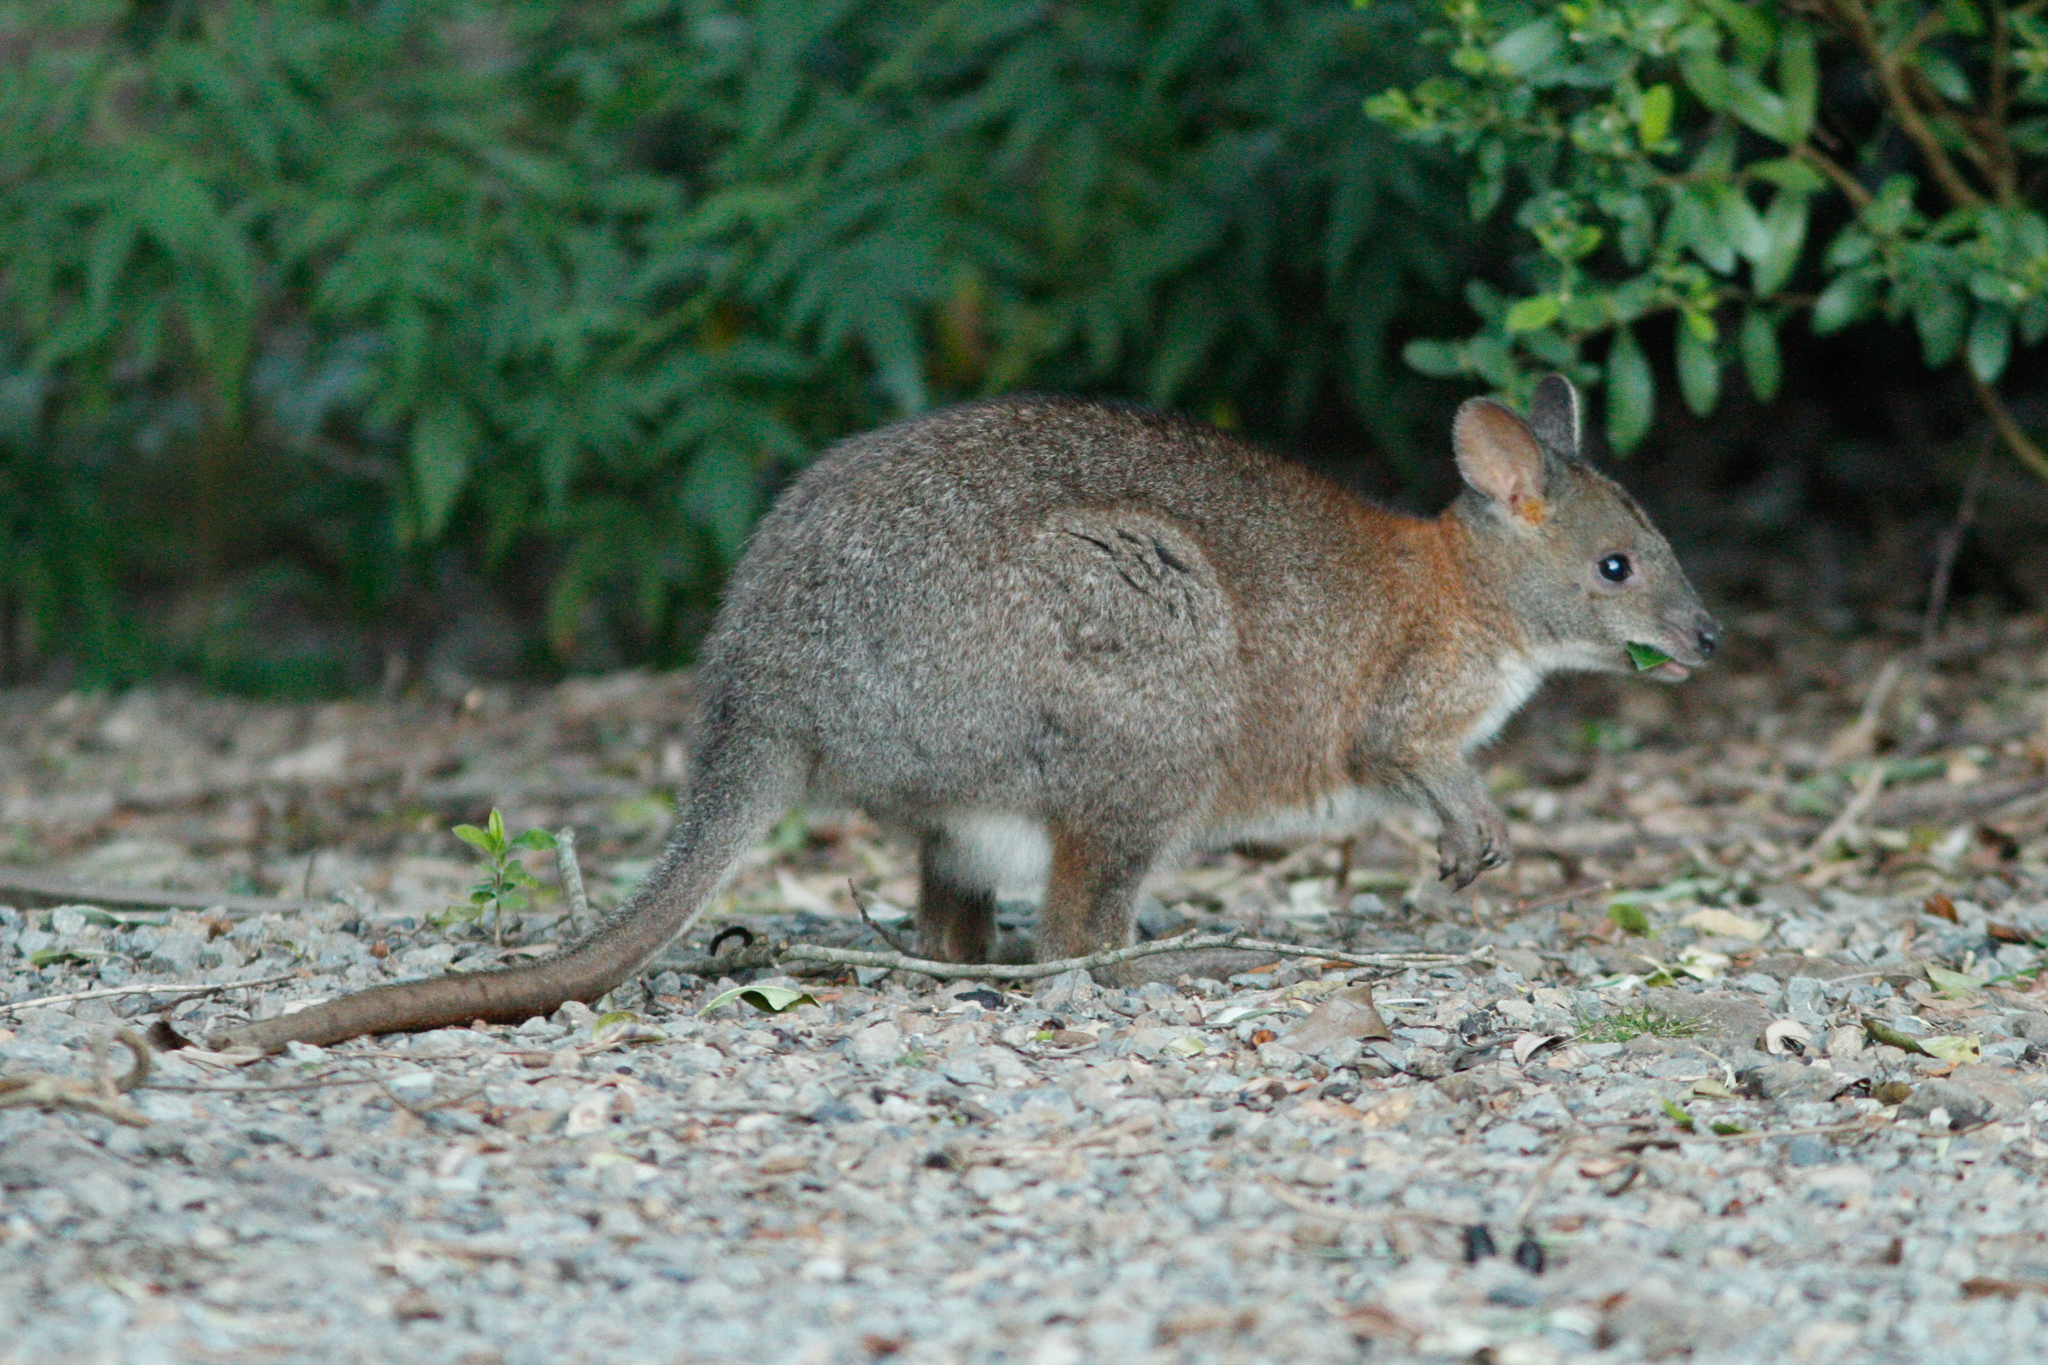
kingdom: Animalia
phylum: Chordata
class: Mammalia
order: Diprotodontia
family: Macropodidae
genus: Thylogale
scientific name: Thylogale thetis
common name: Red-necked pademelon
